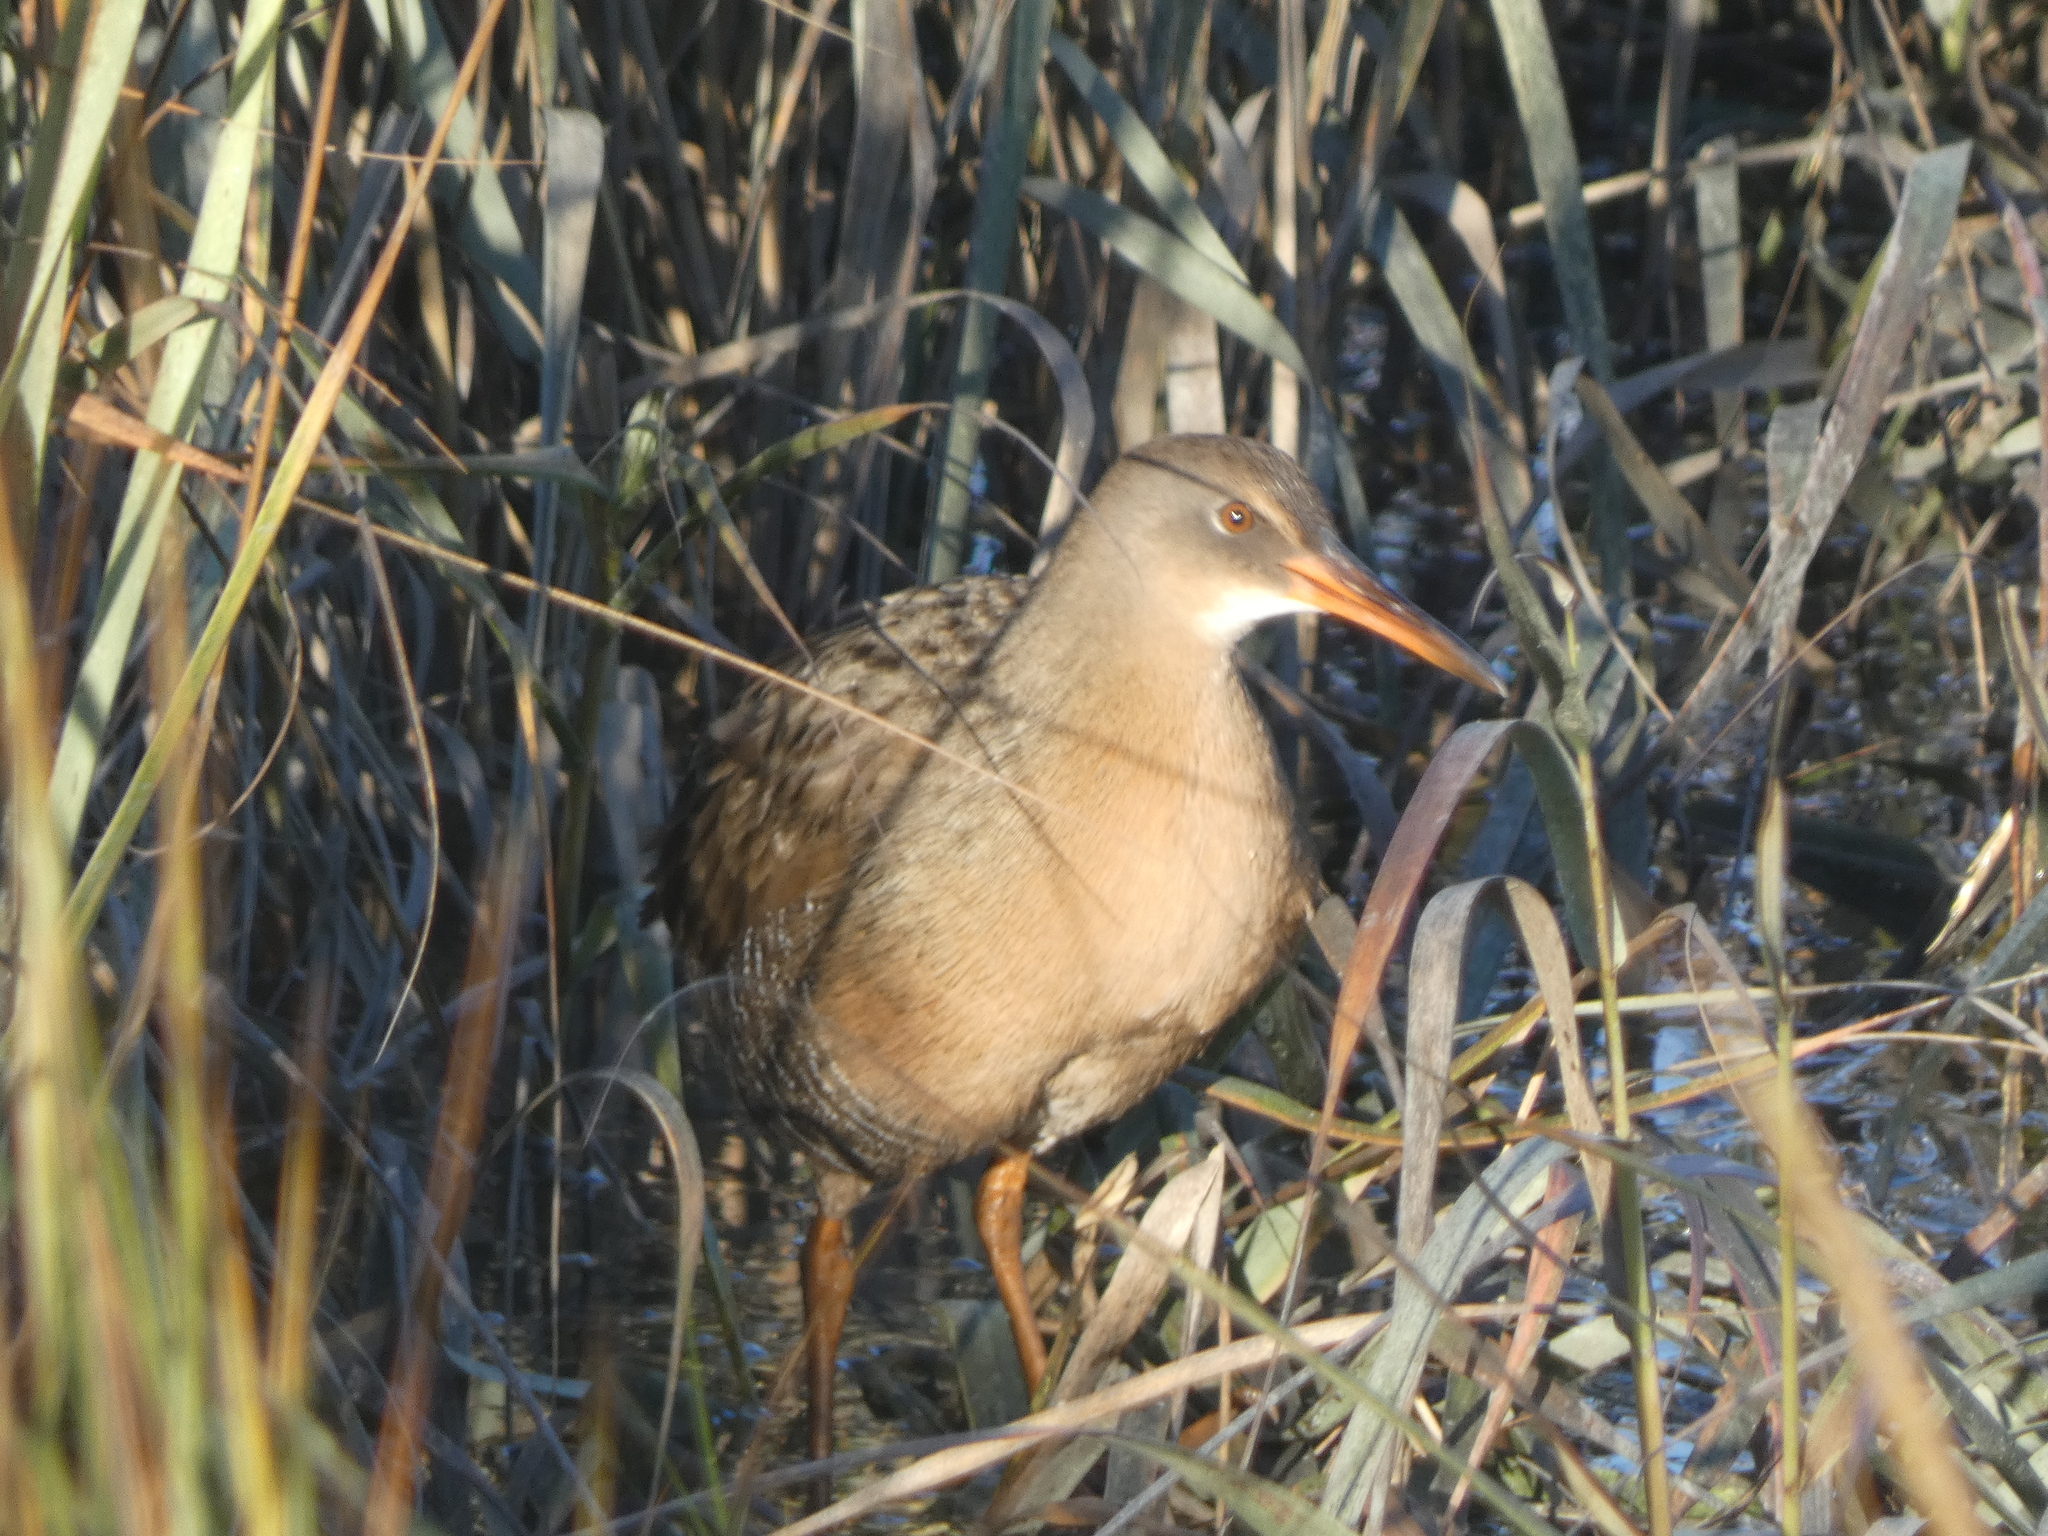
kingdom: Animalia
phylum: Chordata
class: Aves
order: Gruiformes
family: Rallidae
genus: Rallus
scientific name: Rallus obsoletus
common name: Ridgway's rail
